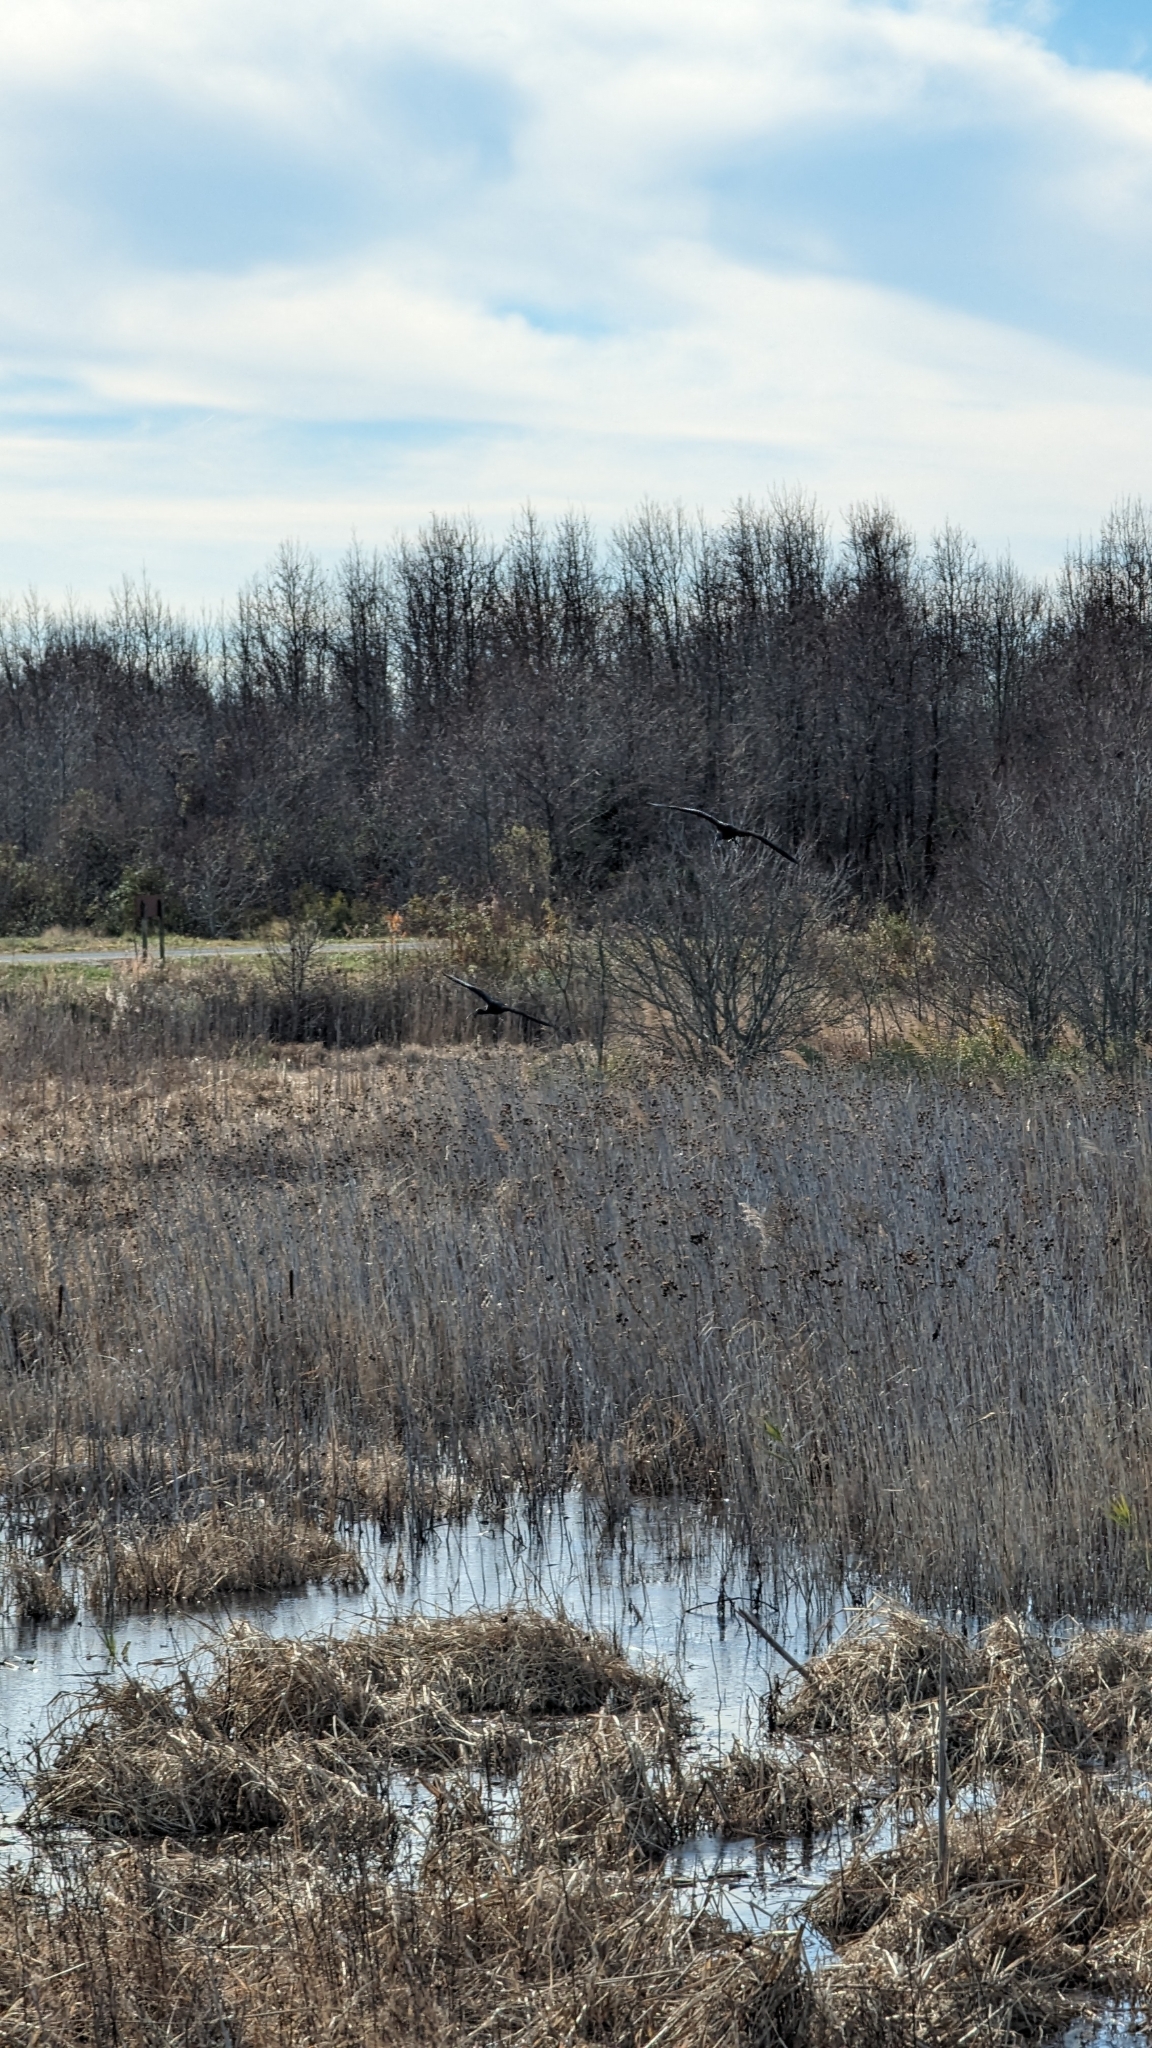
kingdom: Animalia
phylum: Chordata
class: Aves
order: Pelecaniformes
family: Threskiornithidae
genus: Plegadis
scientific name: Plegadis falcinellus
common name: Glossy ibis
